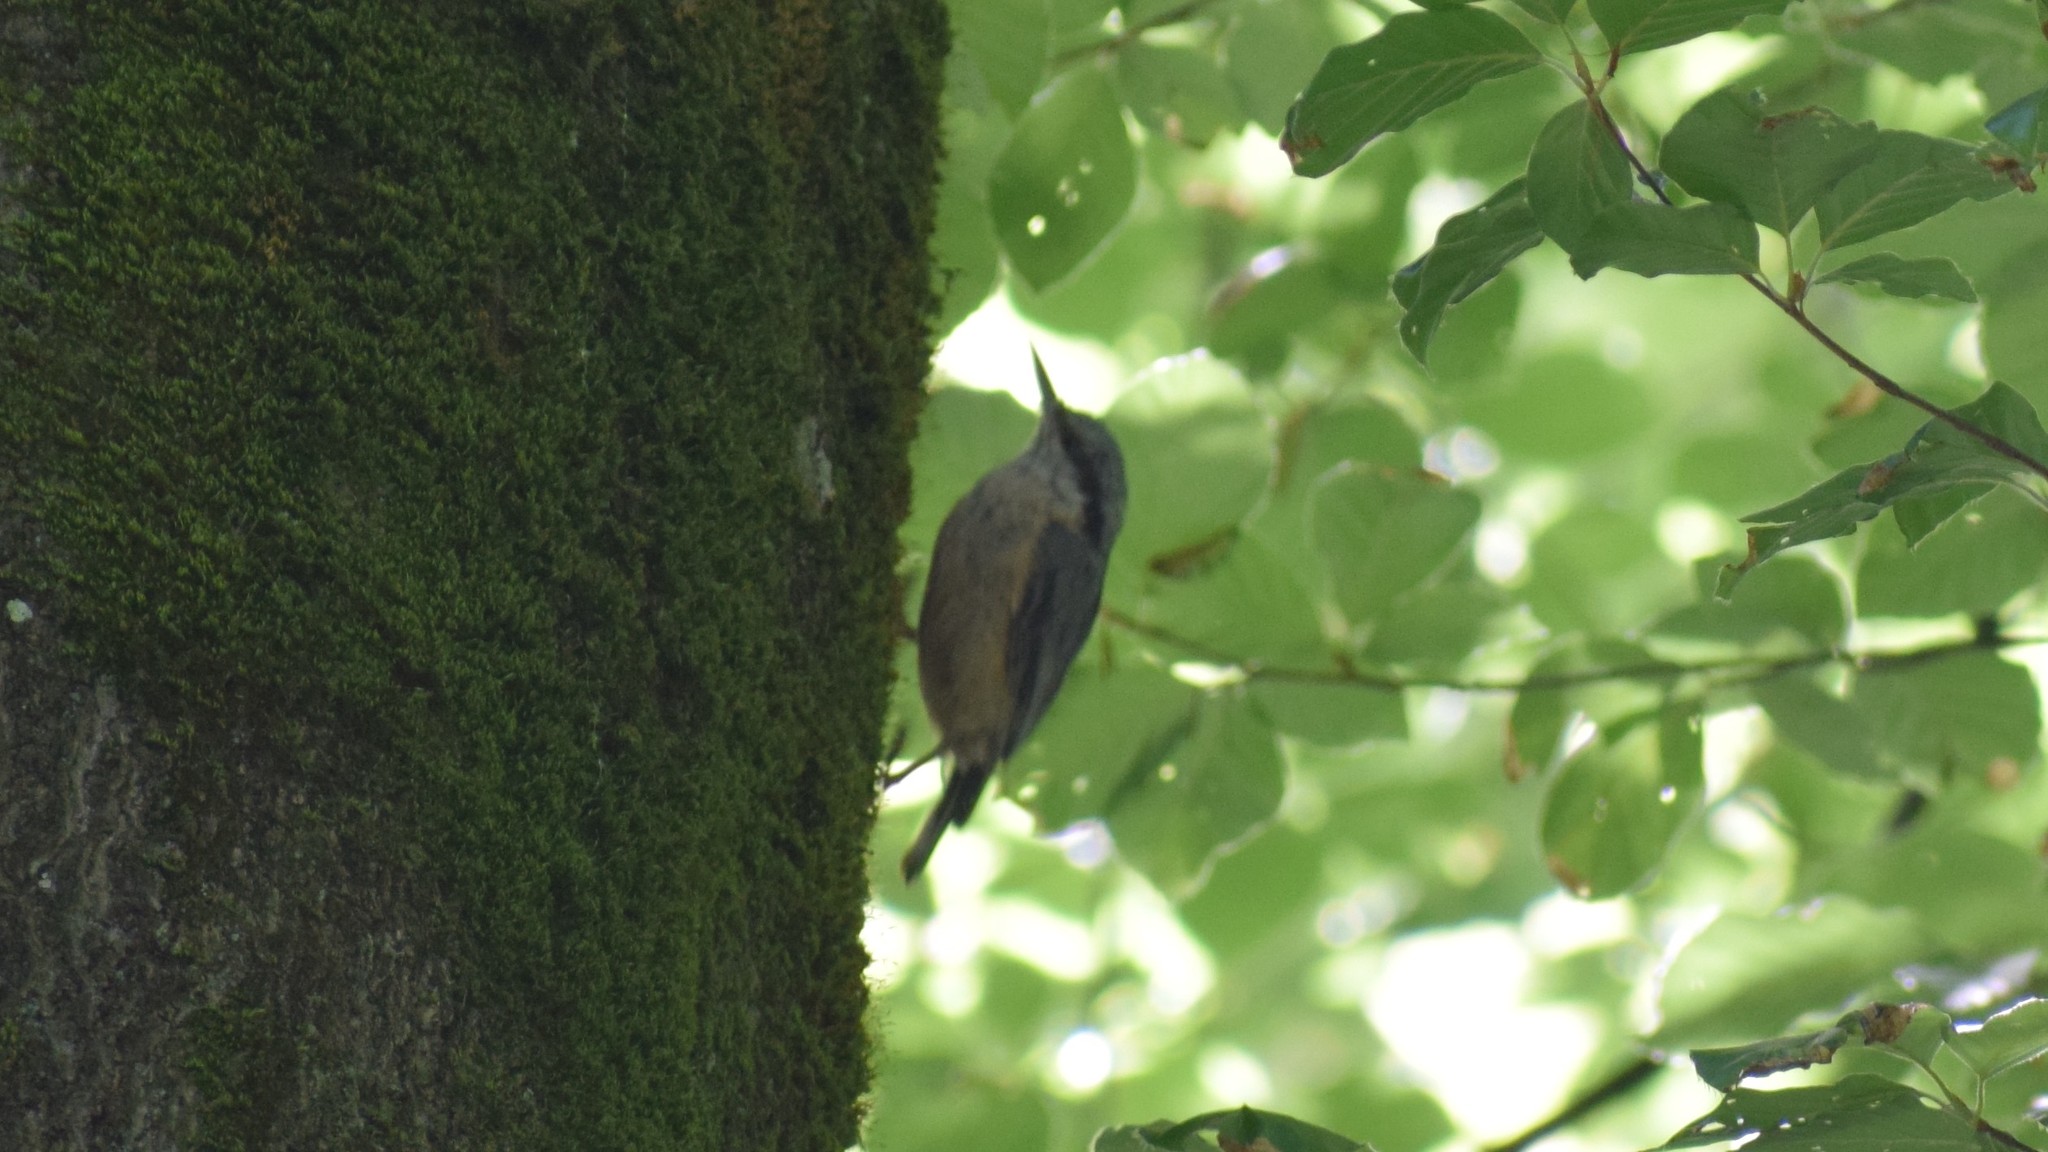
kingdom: Animalia
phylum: Chordata
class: Aves
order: Passeriformes
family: Sittidae
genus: Sitta
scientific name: Sitta europaea
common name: Eurasian nuthatch
